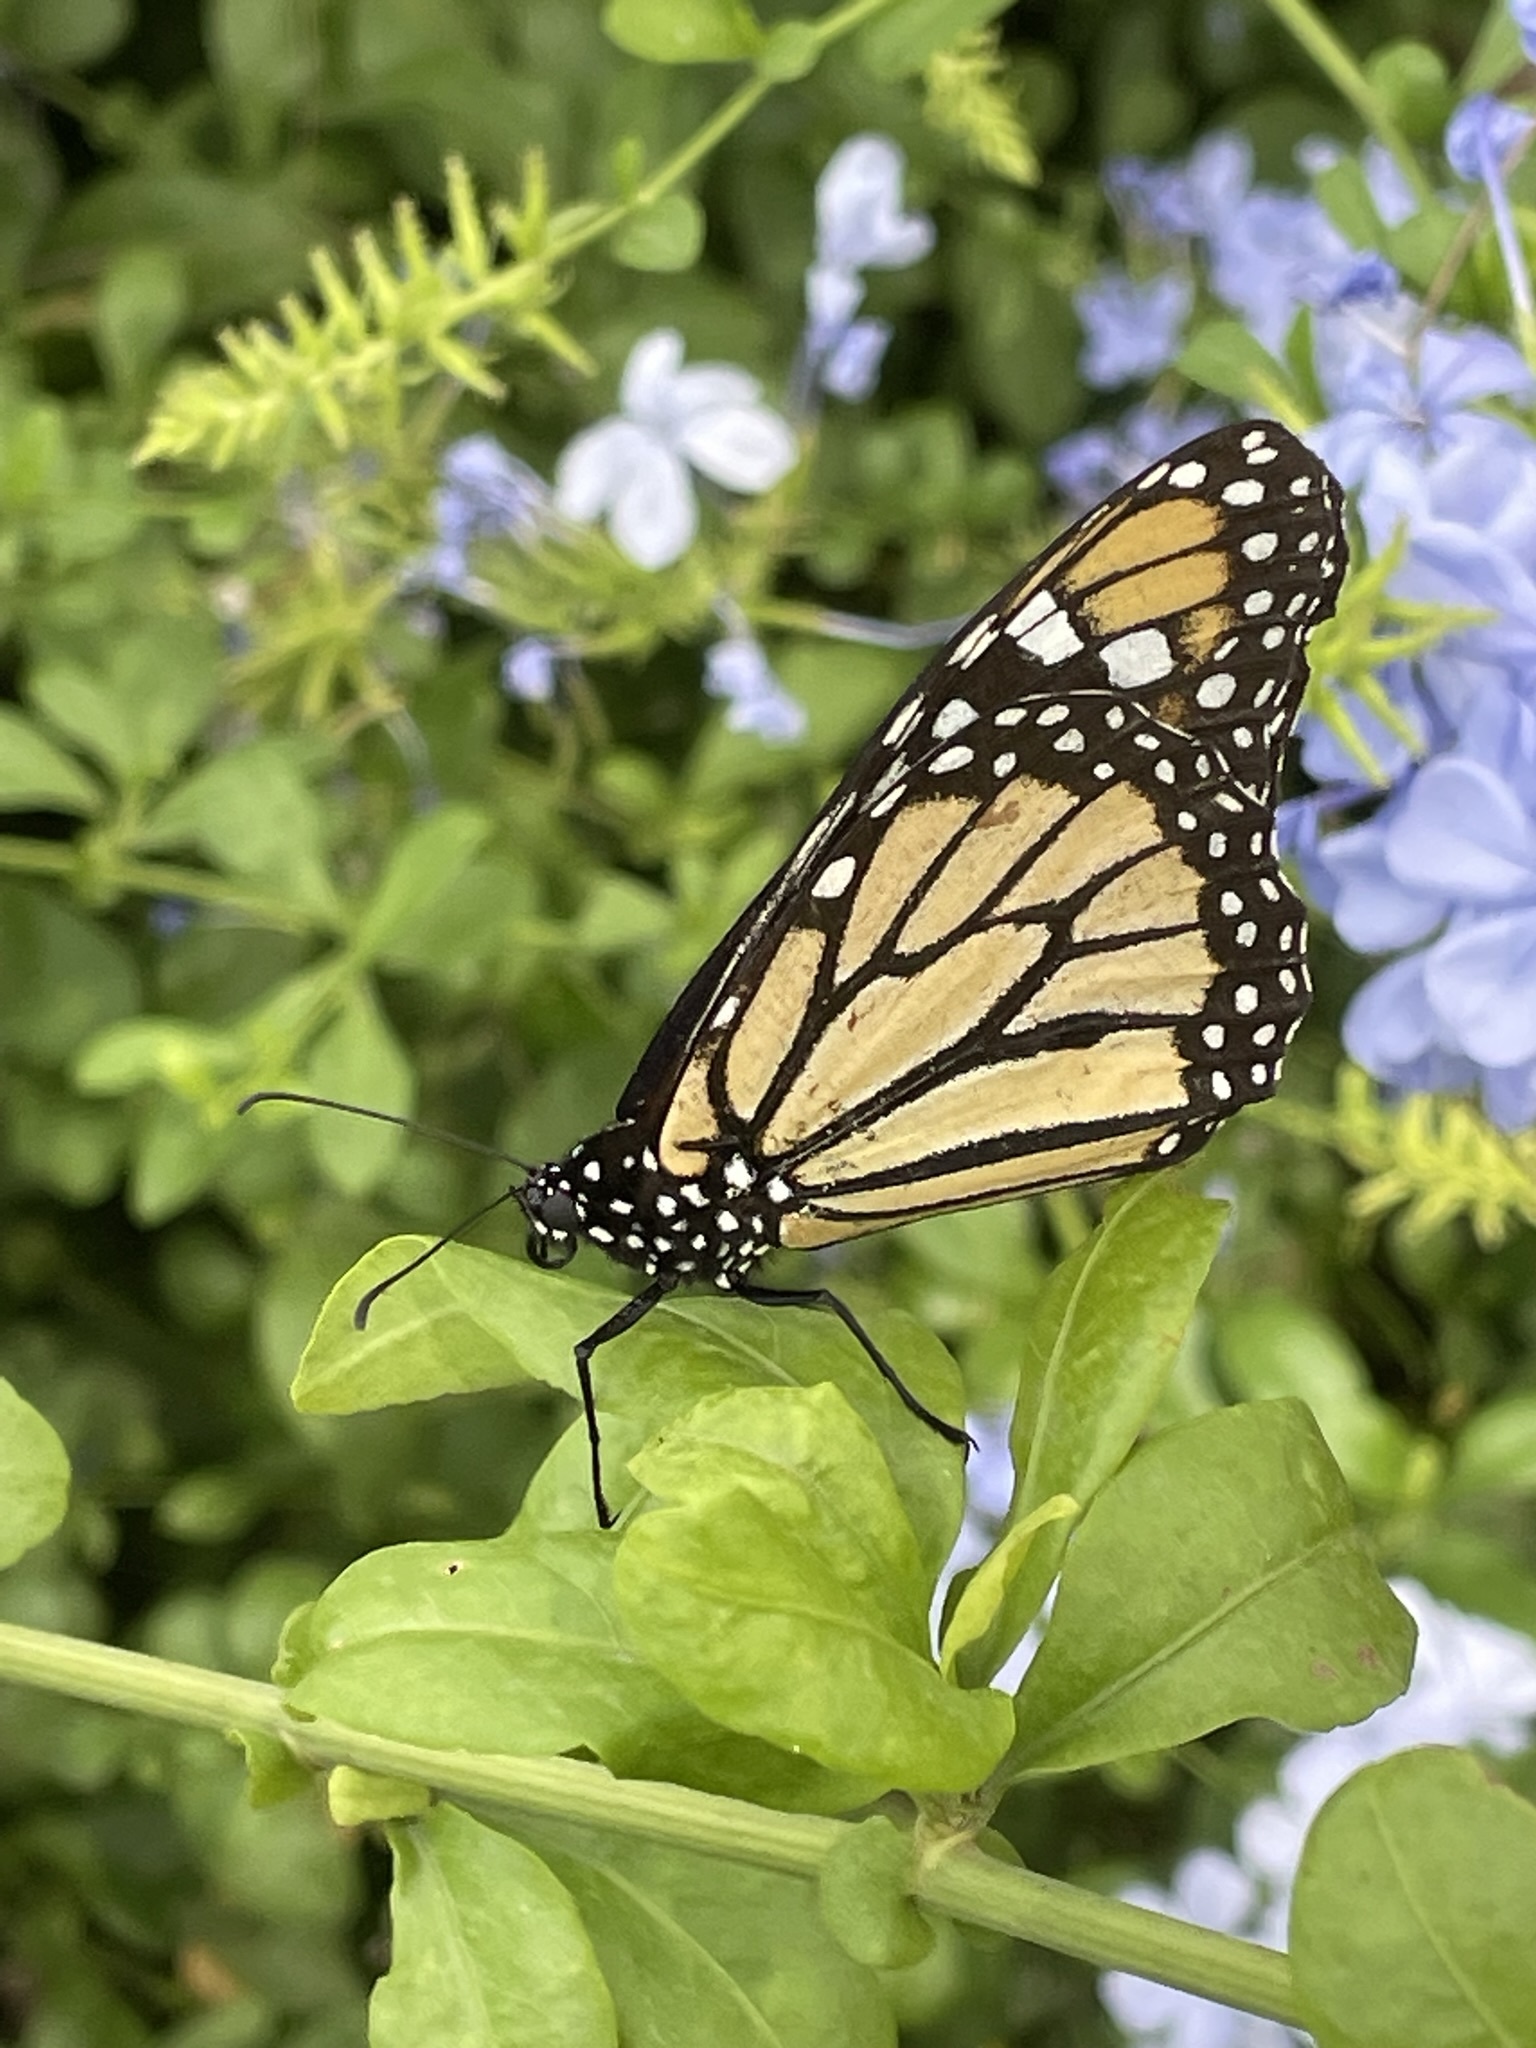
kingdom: Animalia
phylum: Arthropoda
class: Insecta
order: Lepidoptera
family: Nymphalidae
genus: Danaus
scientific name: Danaus plexippus
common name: Monarch
